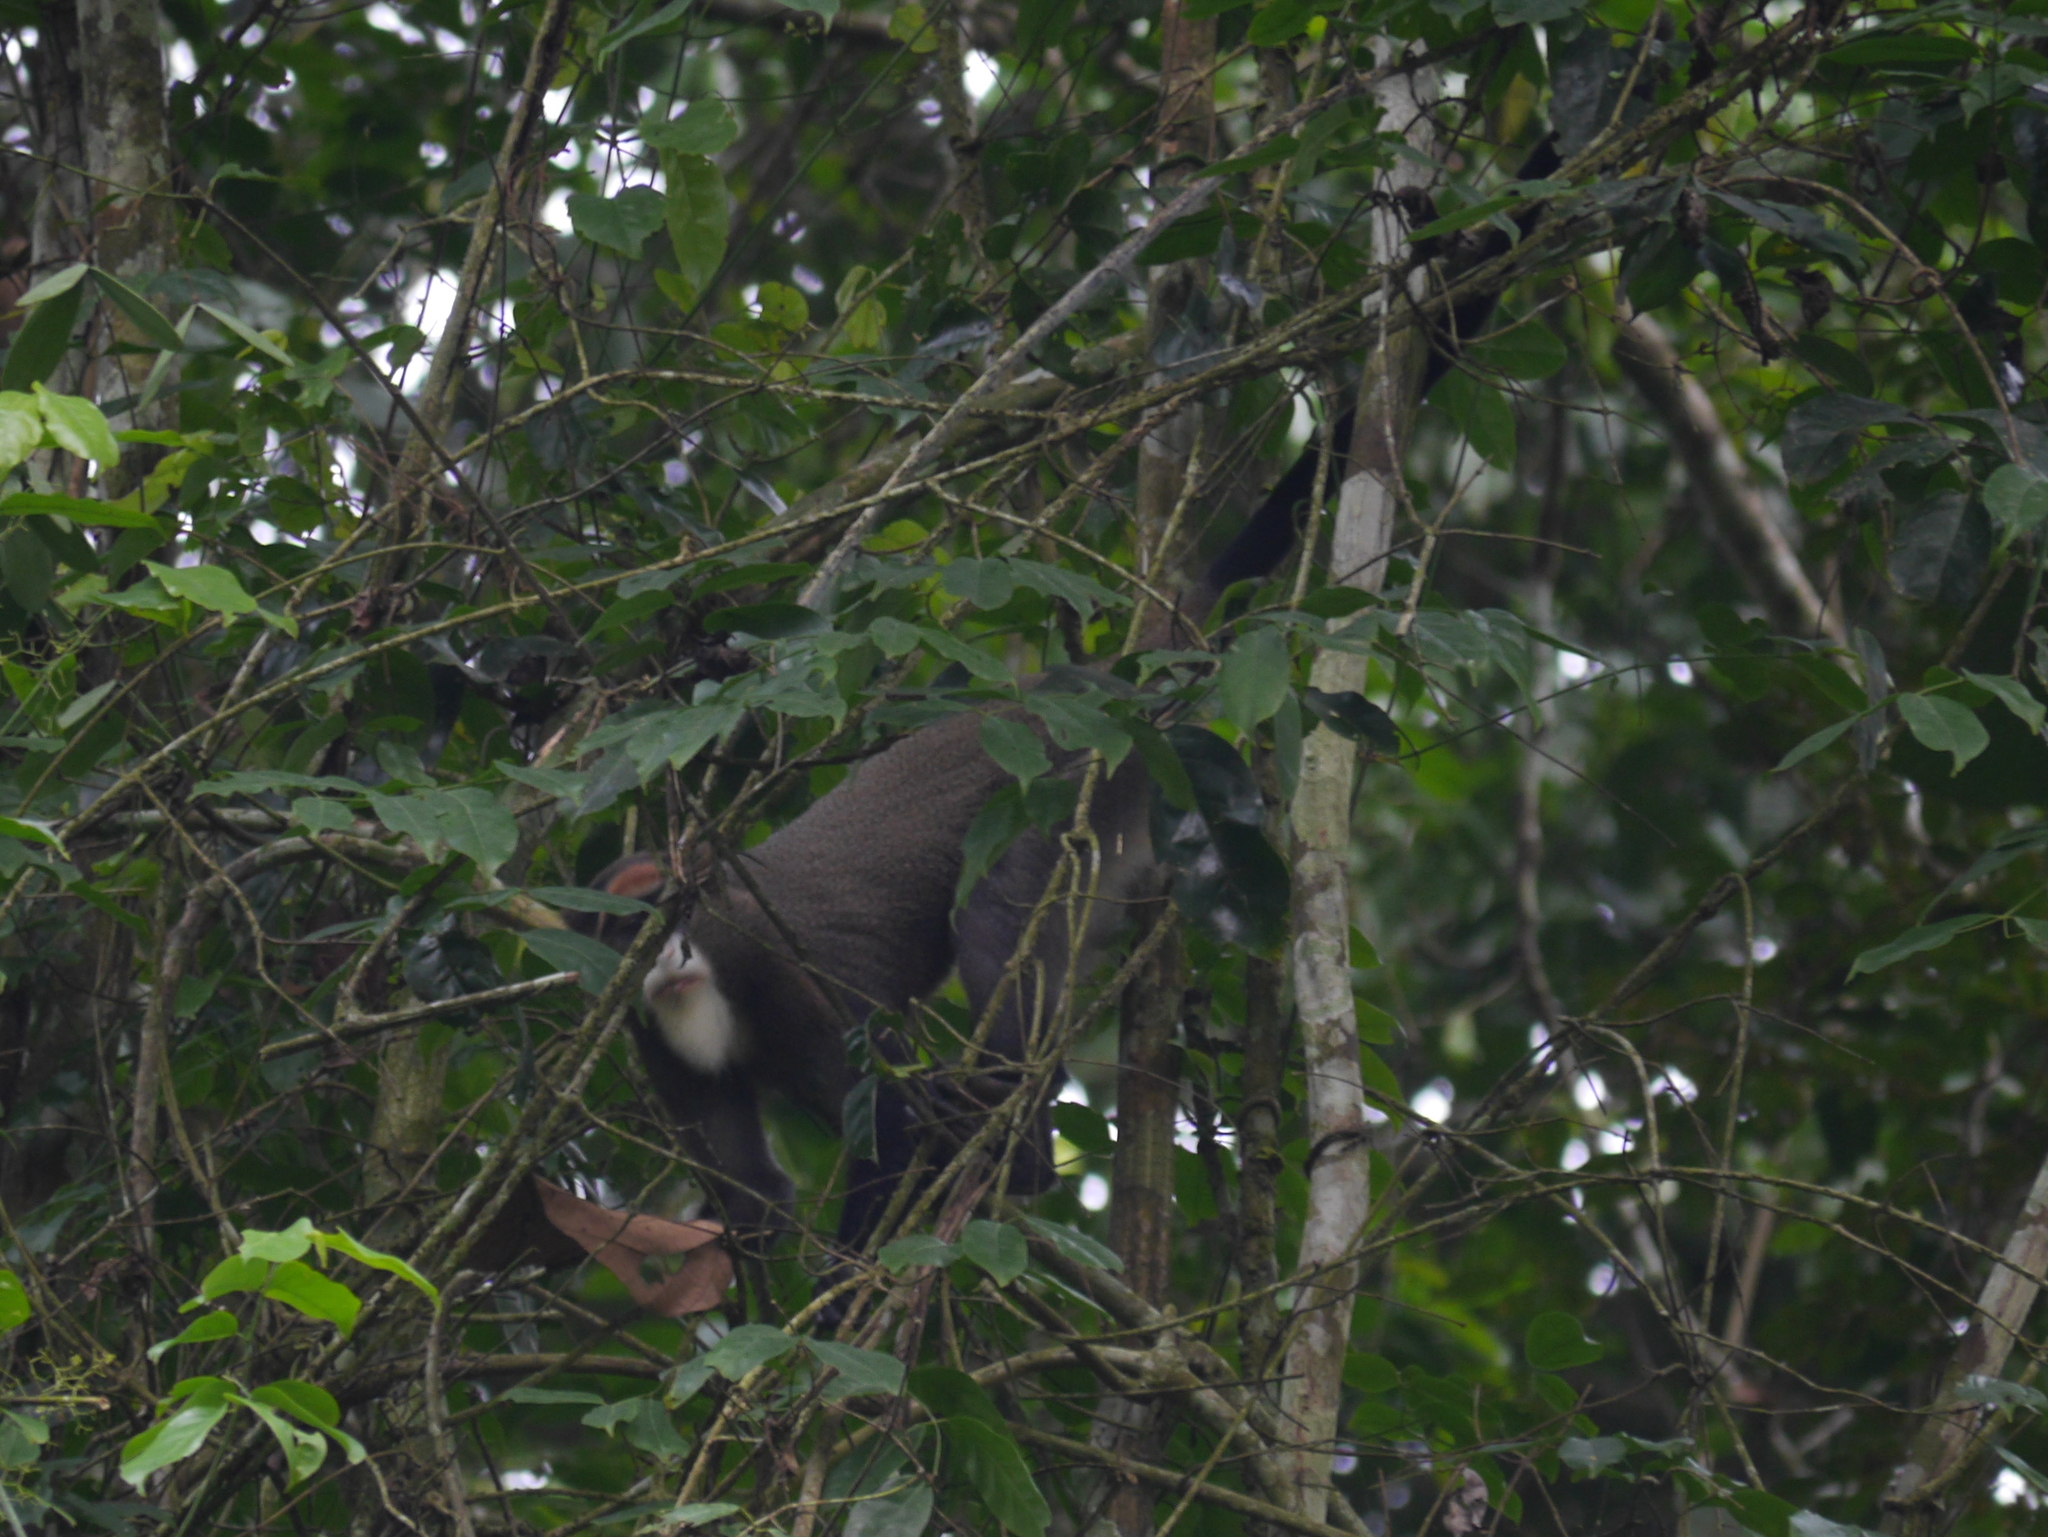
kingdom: Animalia
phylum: Chordata
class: Mammalia
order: Primates
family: Cercopithecidae
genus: Cercopithecus
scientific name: Cercopithecus neglectus
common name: De brazza's guenon
